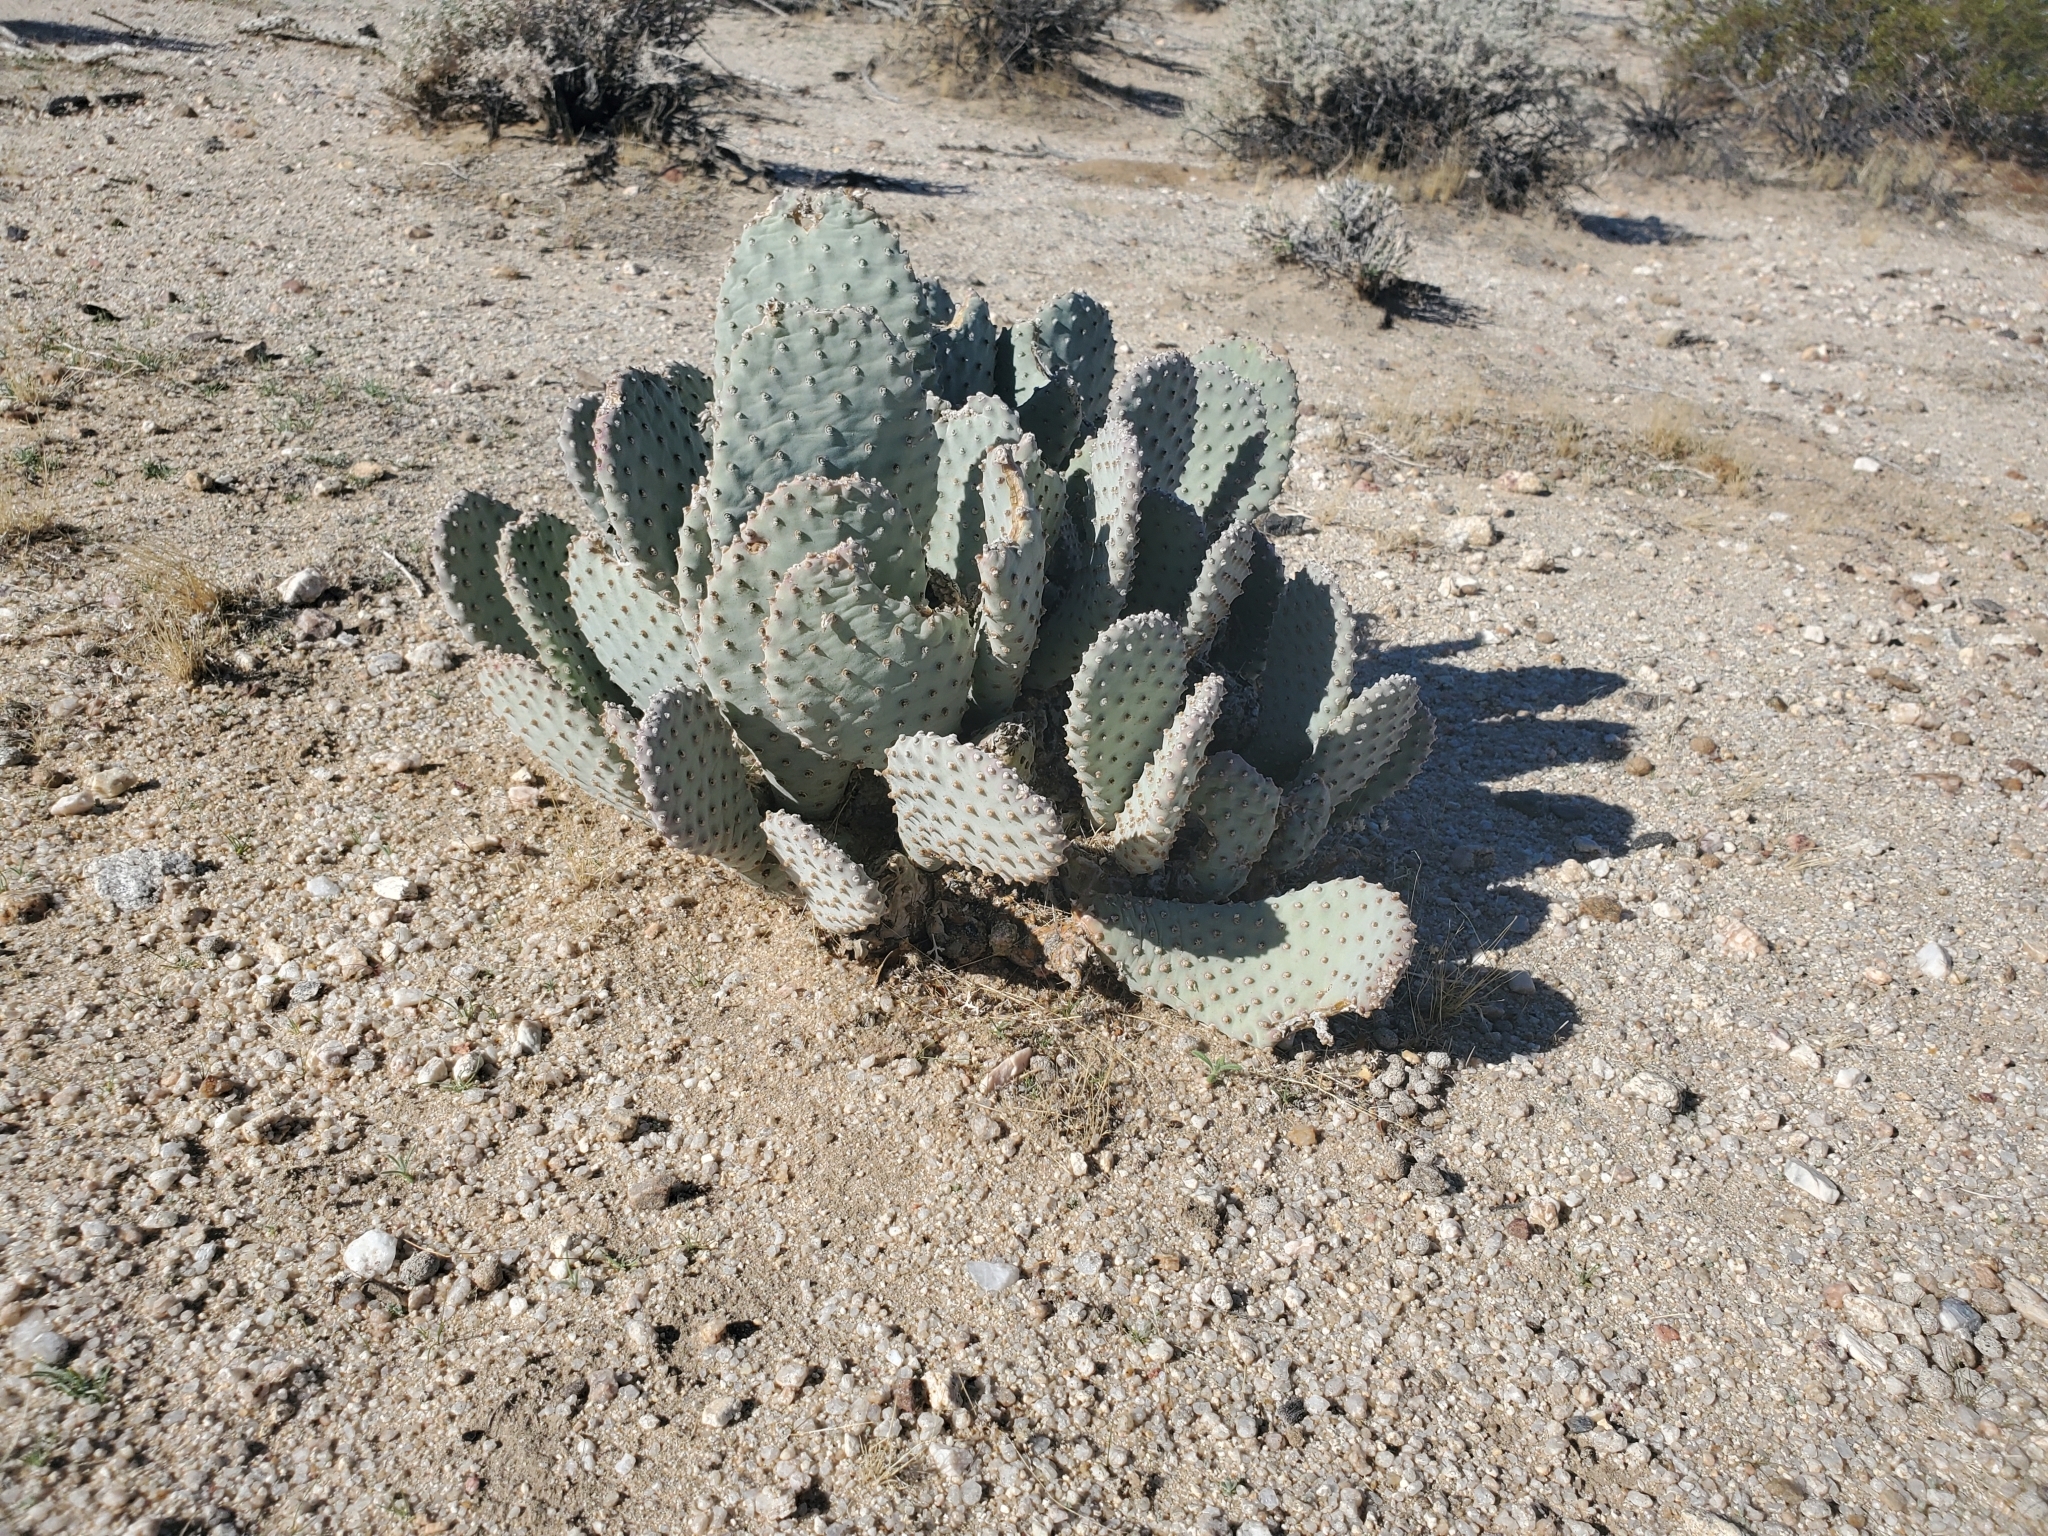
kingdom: Plantae
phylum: Tracheophyta
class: Magnoliopsida
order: Caryophyllales
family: Cactaceae
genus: Opuntia
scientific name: Opuntia basilaris
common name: Beavertail prickly-pear
